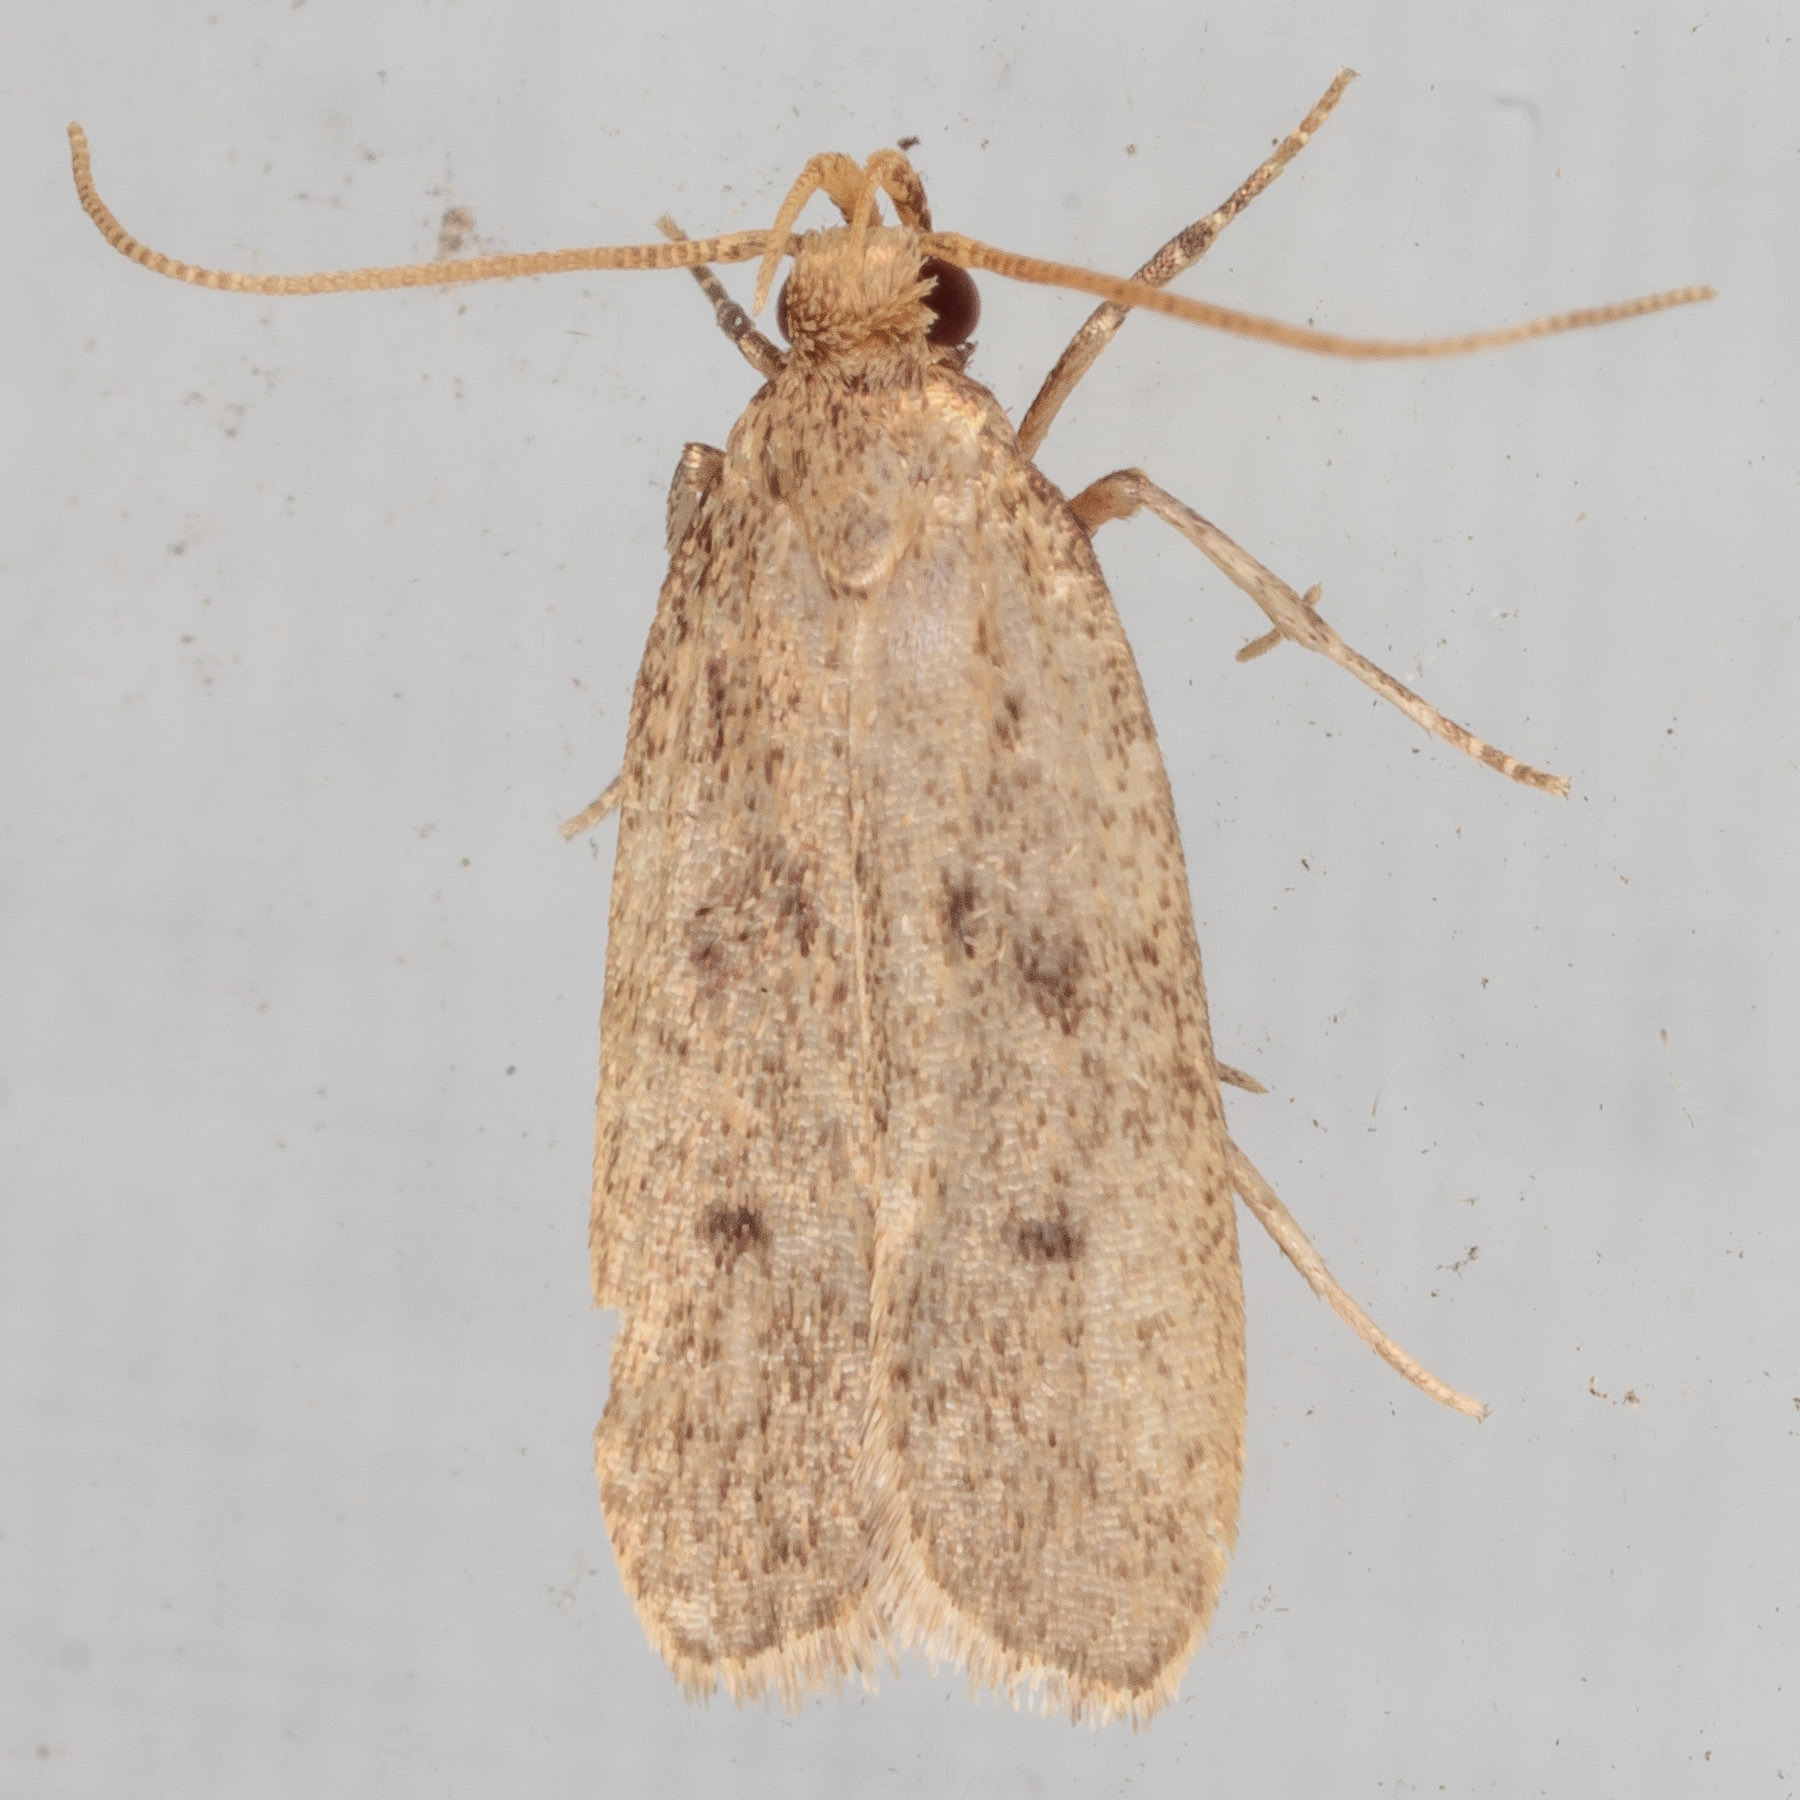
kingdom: Animalia
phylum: Arthropoda
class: Insecta
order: Lepidoptera
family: Autostichidae
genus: Glyphidocera
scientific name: Glyphidocera juniperella
